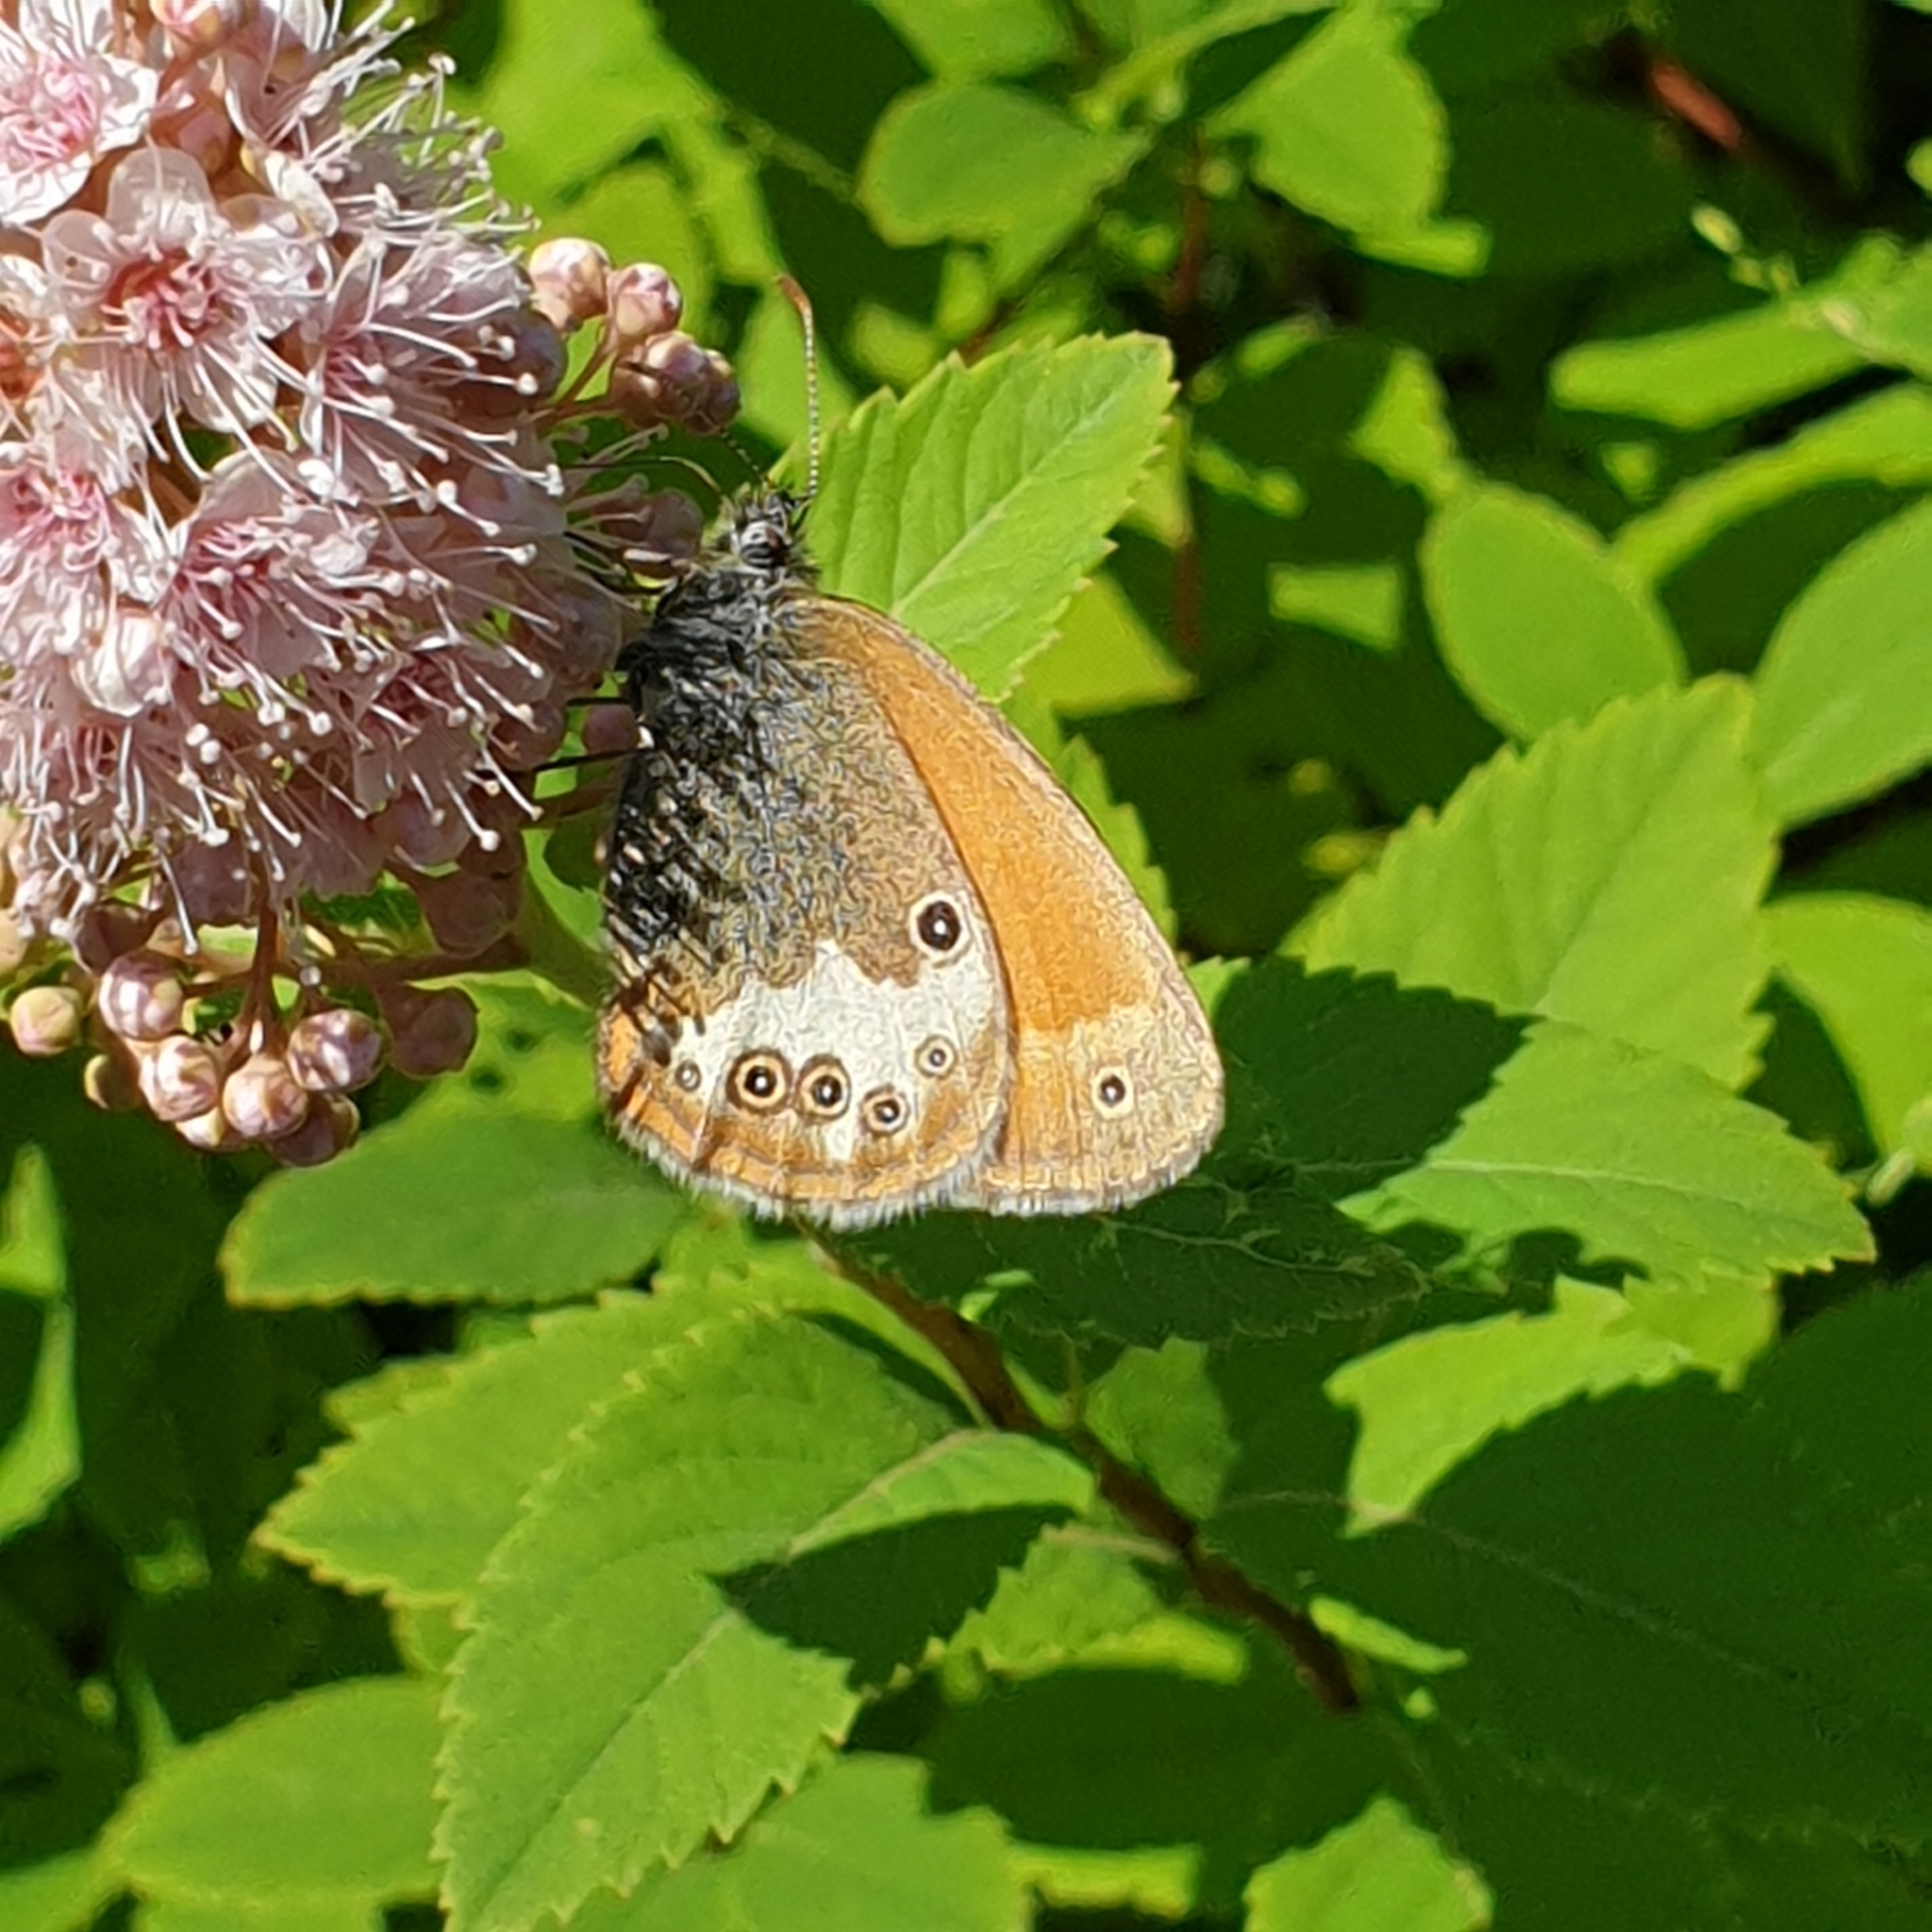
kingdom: Animalia
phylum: Arthropoda
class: Insecta
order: Lepidoptera
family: Nymphalidae
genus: Coenonympha
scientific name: Coenonympha arcania
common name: Pearly heath
